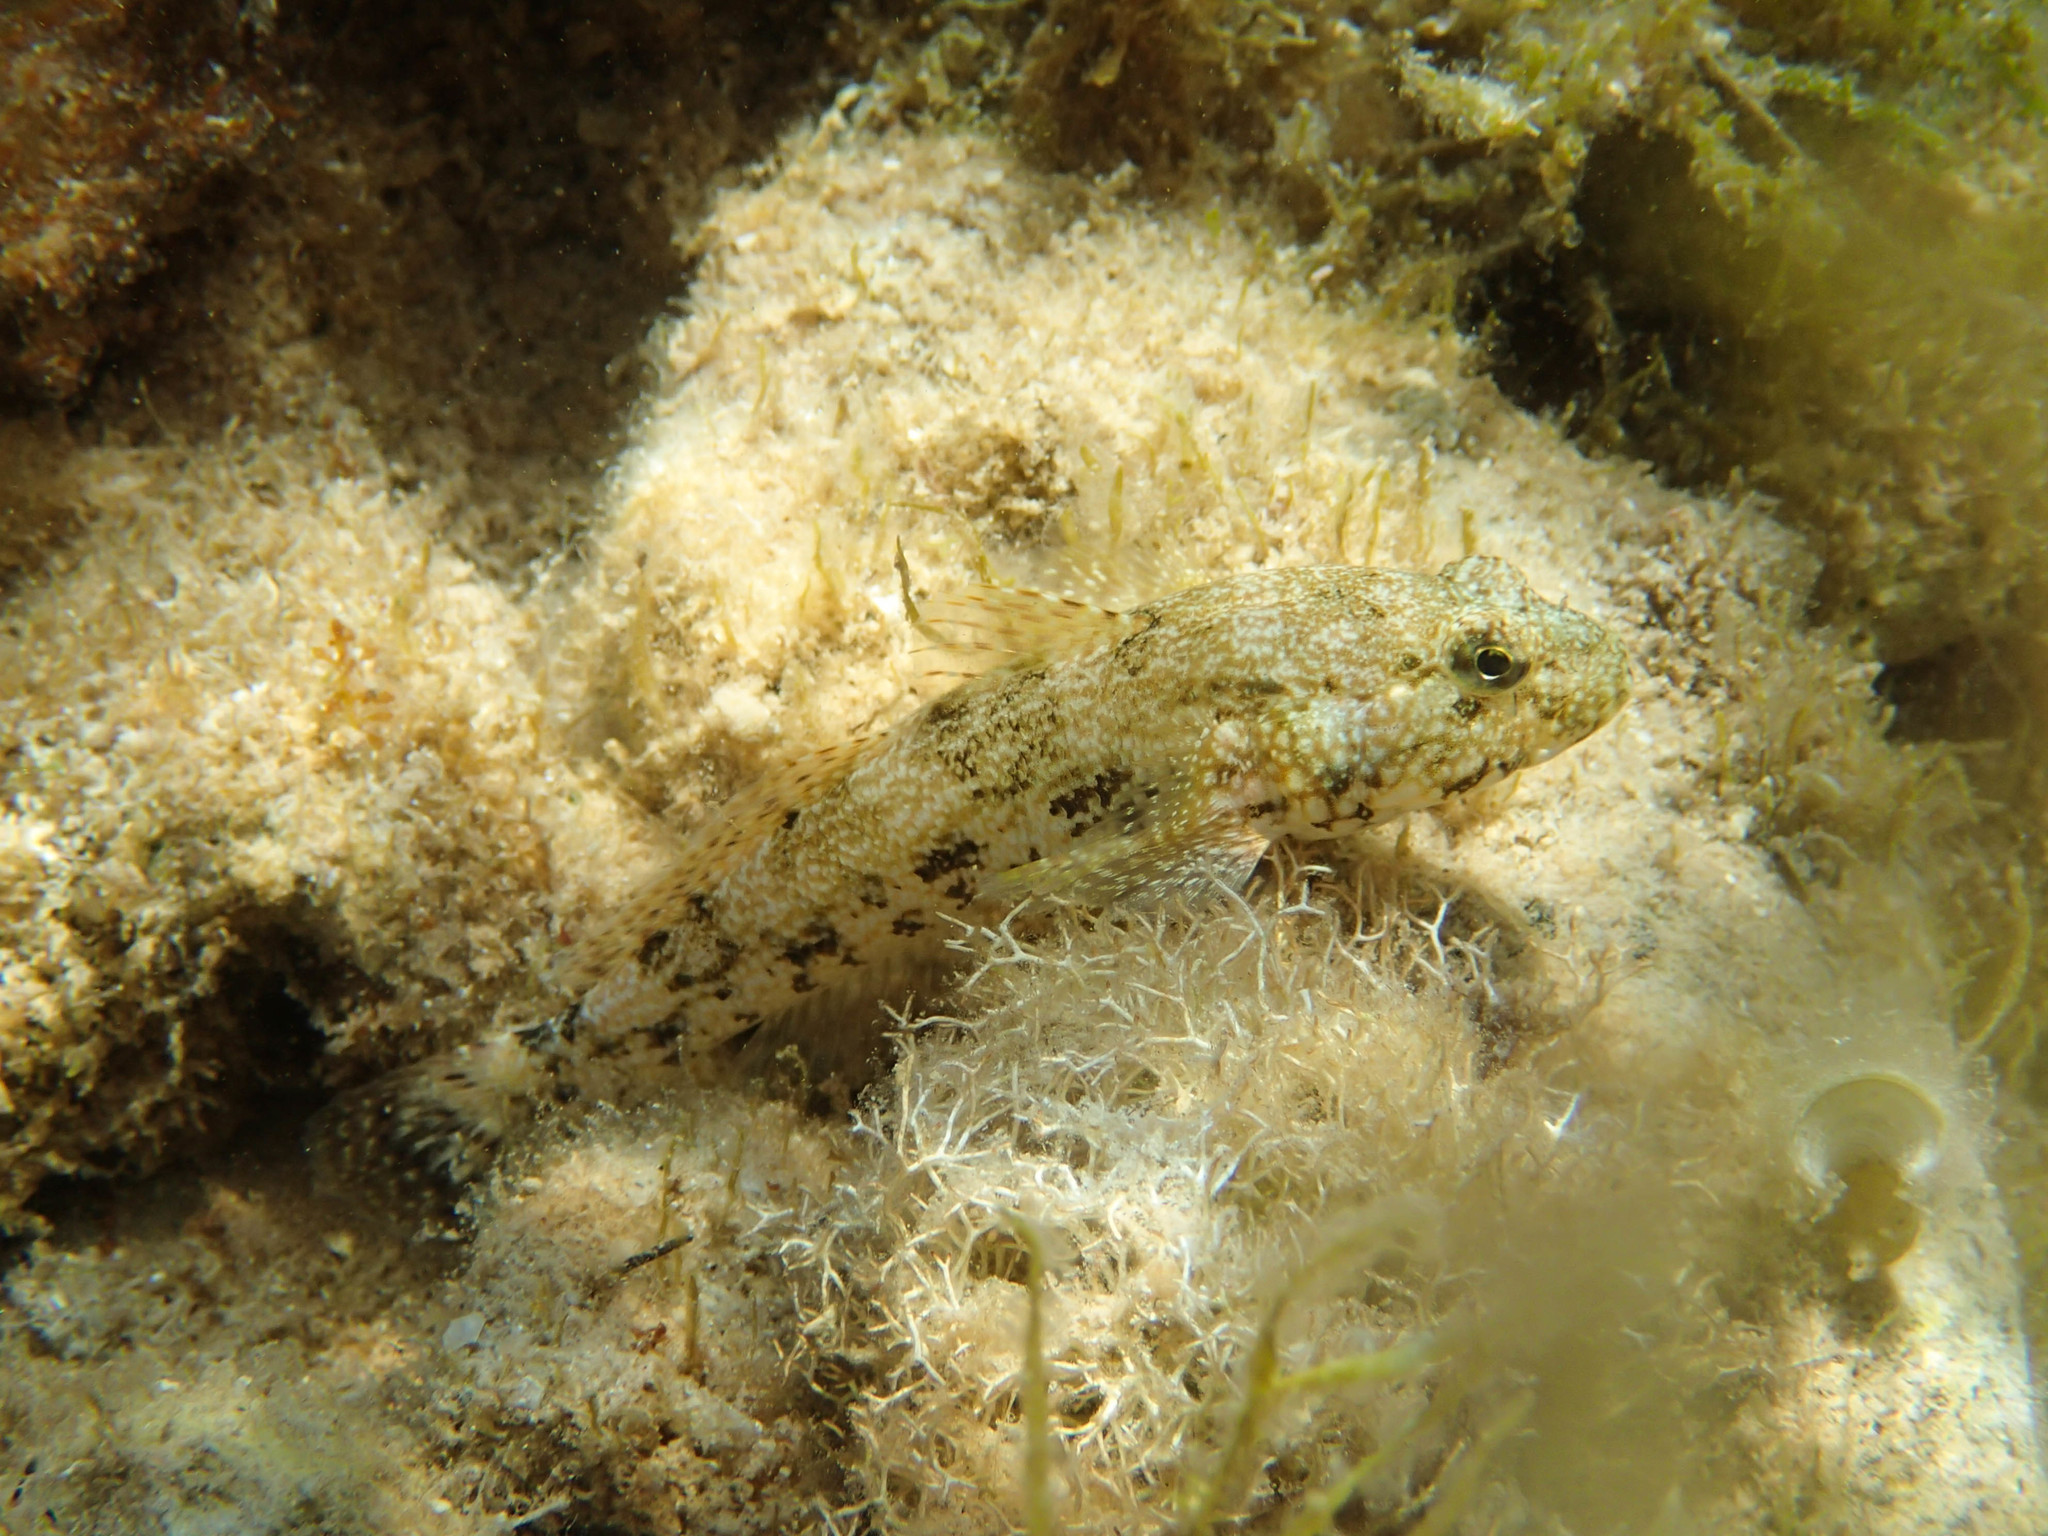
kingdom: Animalia
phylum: Chordata
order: Perciformes
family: Gobiidae
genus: Gobius
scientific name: Gobius cobitis
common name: Giant goby
